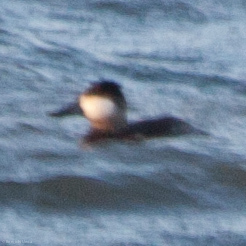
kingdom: Animalia
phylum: Chordata
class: Aves
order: Anseriformes
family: Anatidae
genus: Oxyura
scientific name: Oxyura jamaicensis
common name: Ruddy duck
